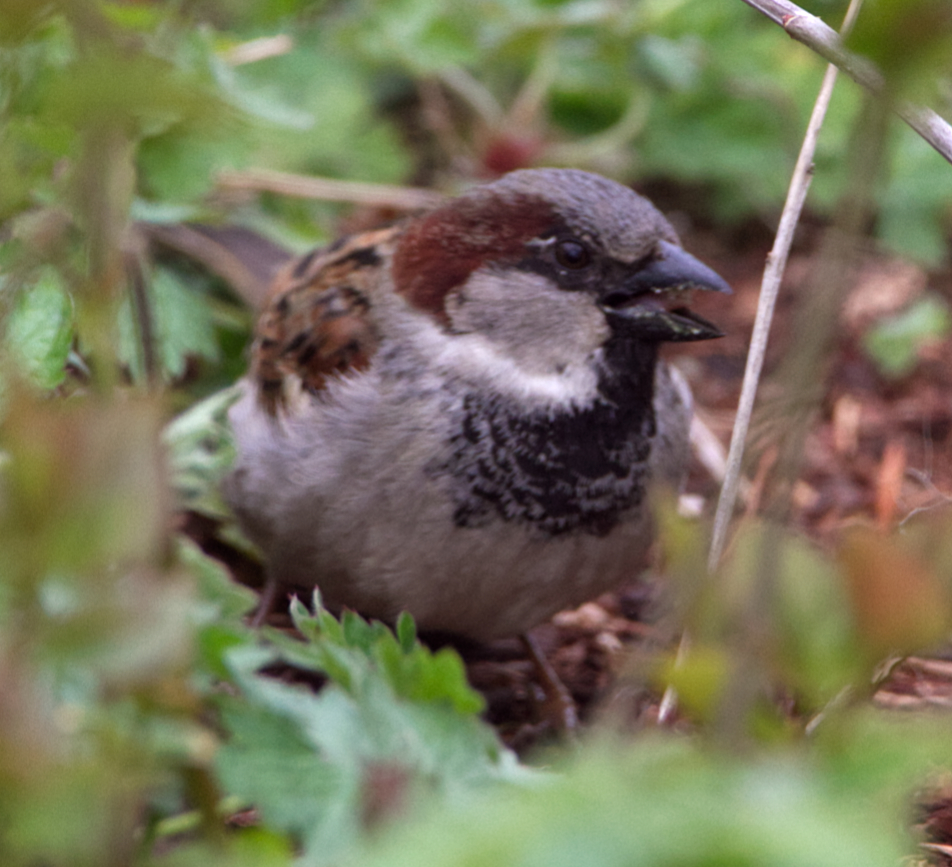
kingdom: Animalia
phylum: Chordata
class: Aves
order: Passeriformes
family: Passeridae
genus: Passer
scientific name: Passer domesticus
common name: House sparrow
